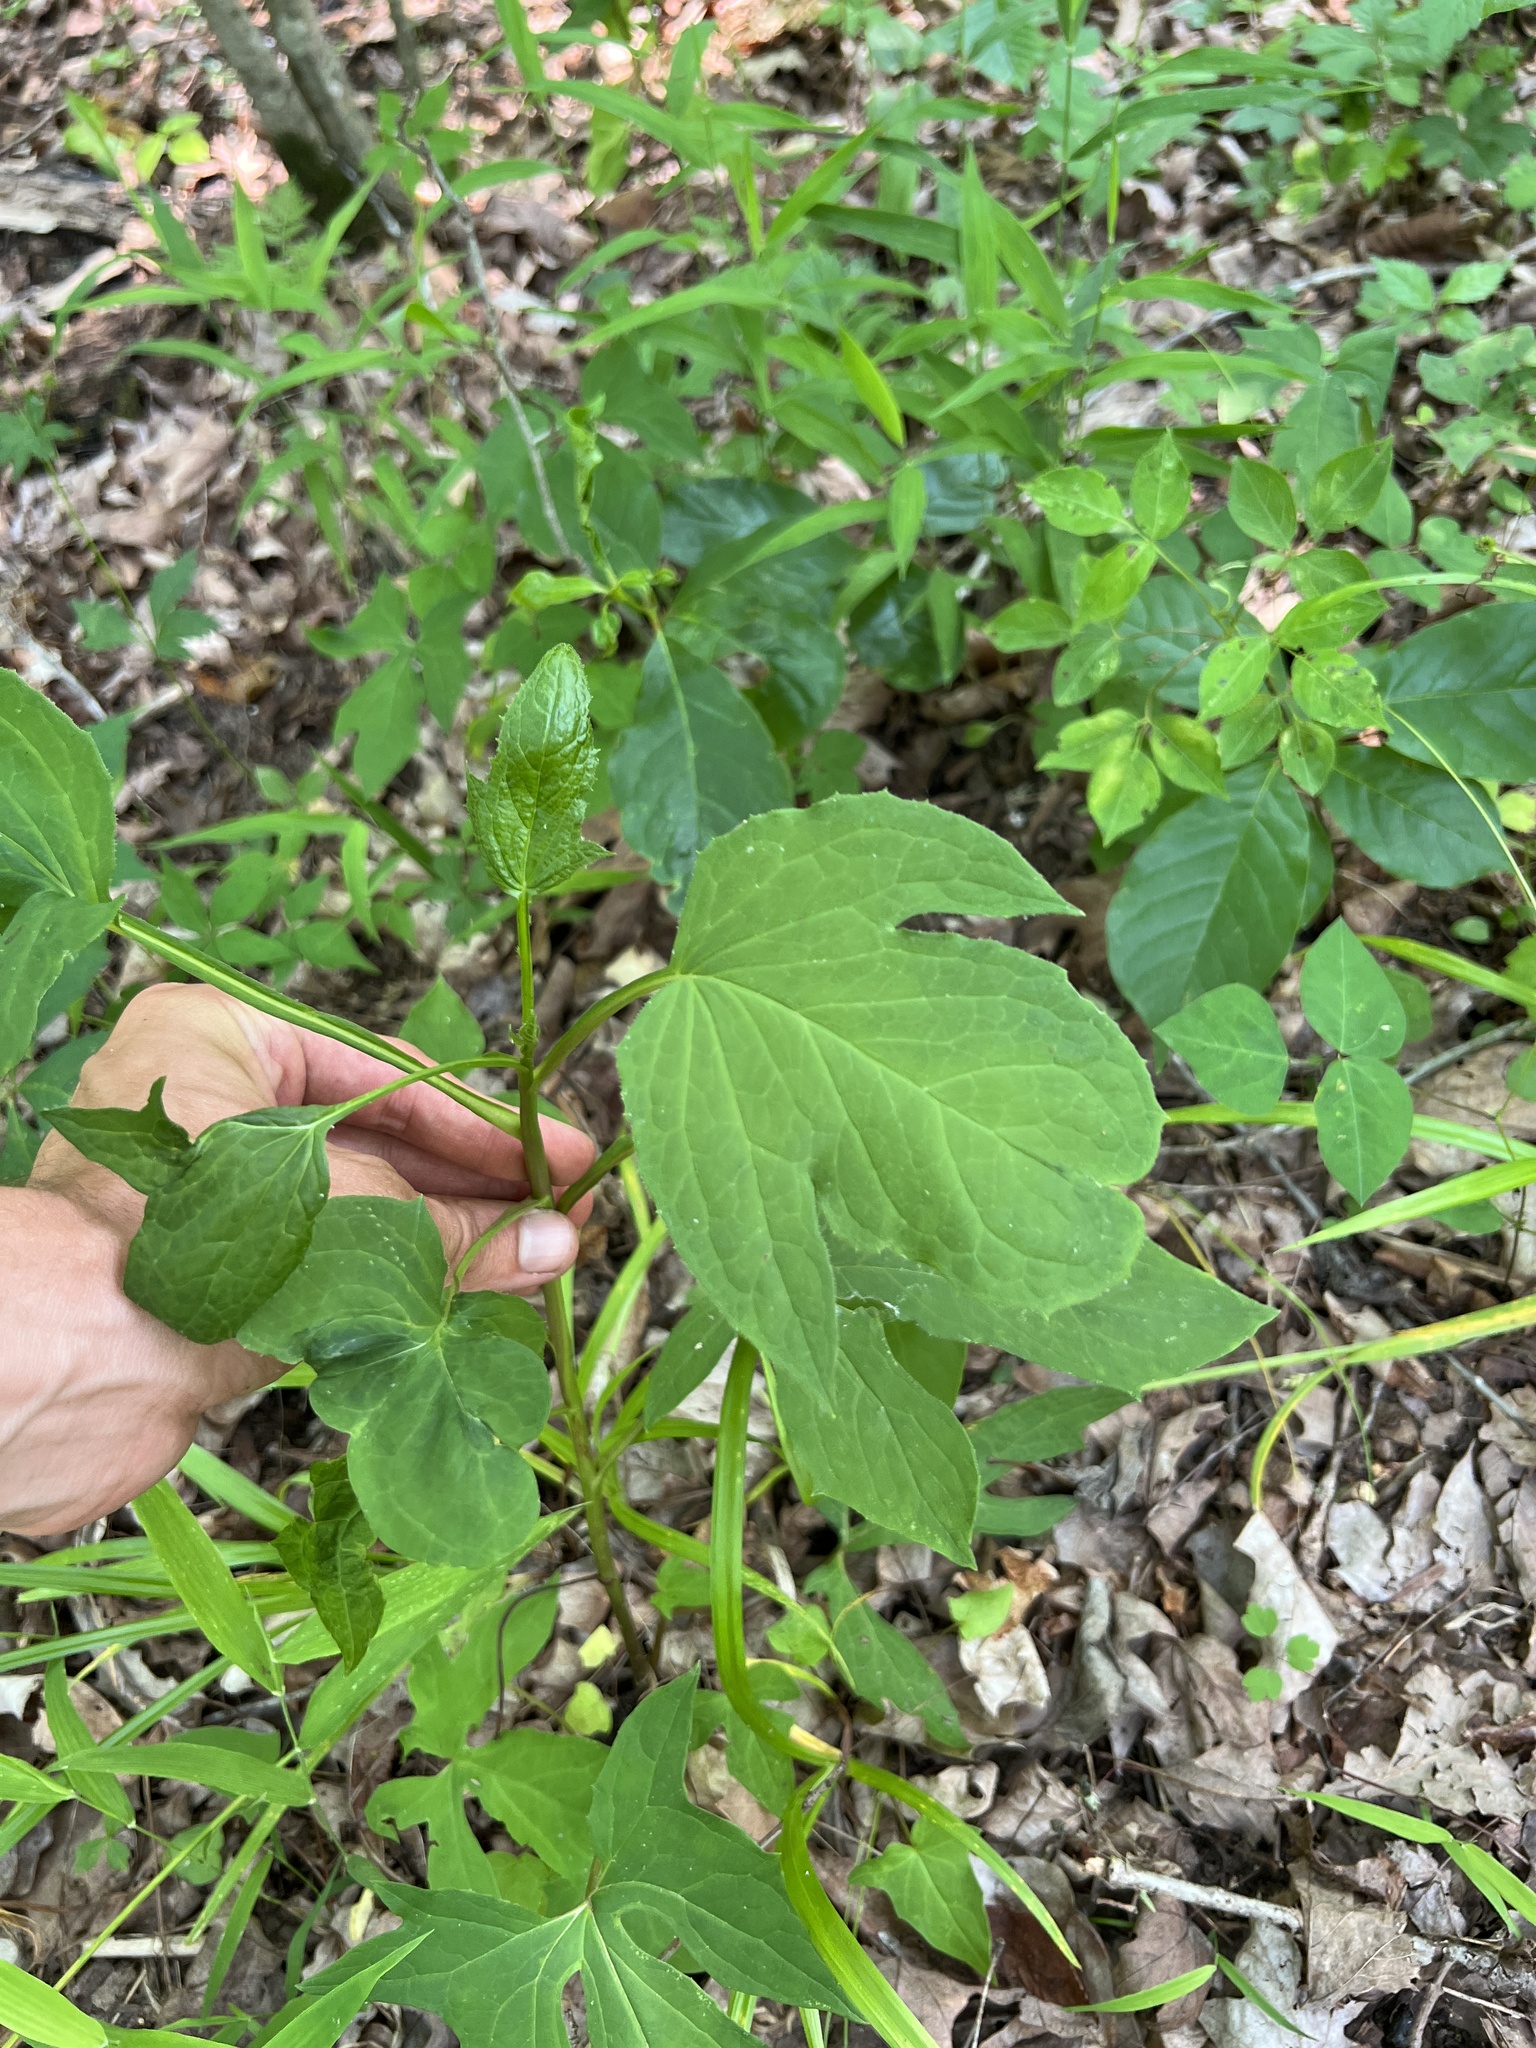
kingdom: Plantae
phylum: Tracheophyta
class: Magnoliopsida
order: Asterales
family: Asteraceae
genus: Nabalus
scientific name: Nabalus altissima
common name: Tall rattlesnakeroot
